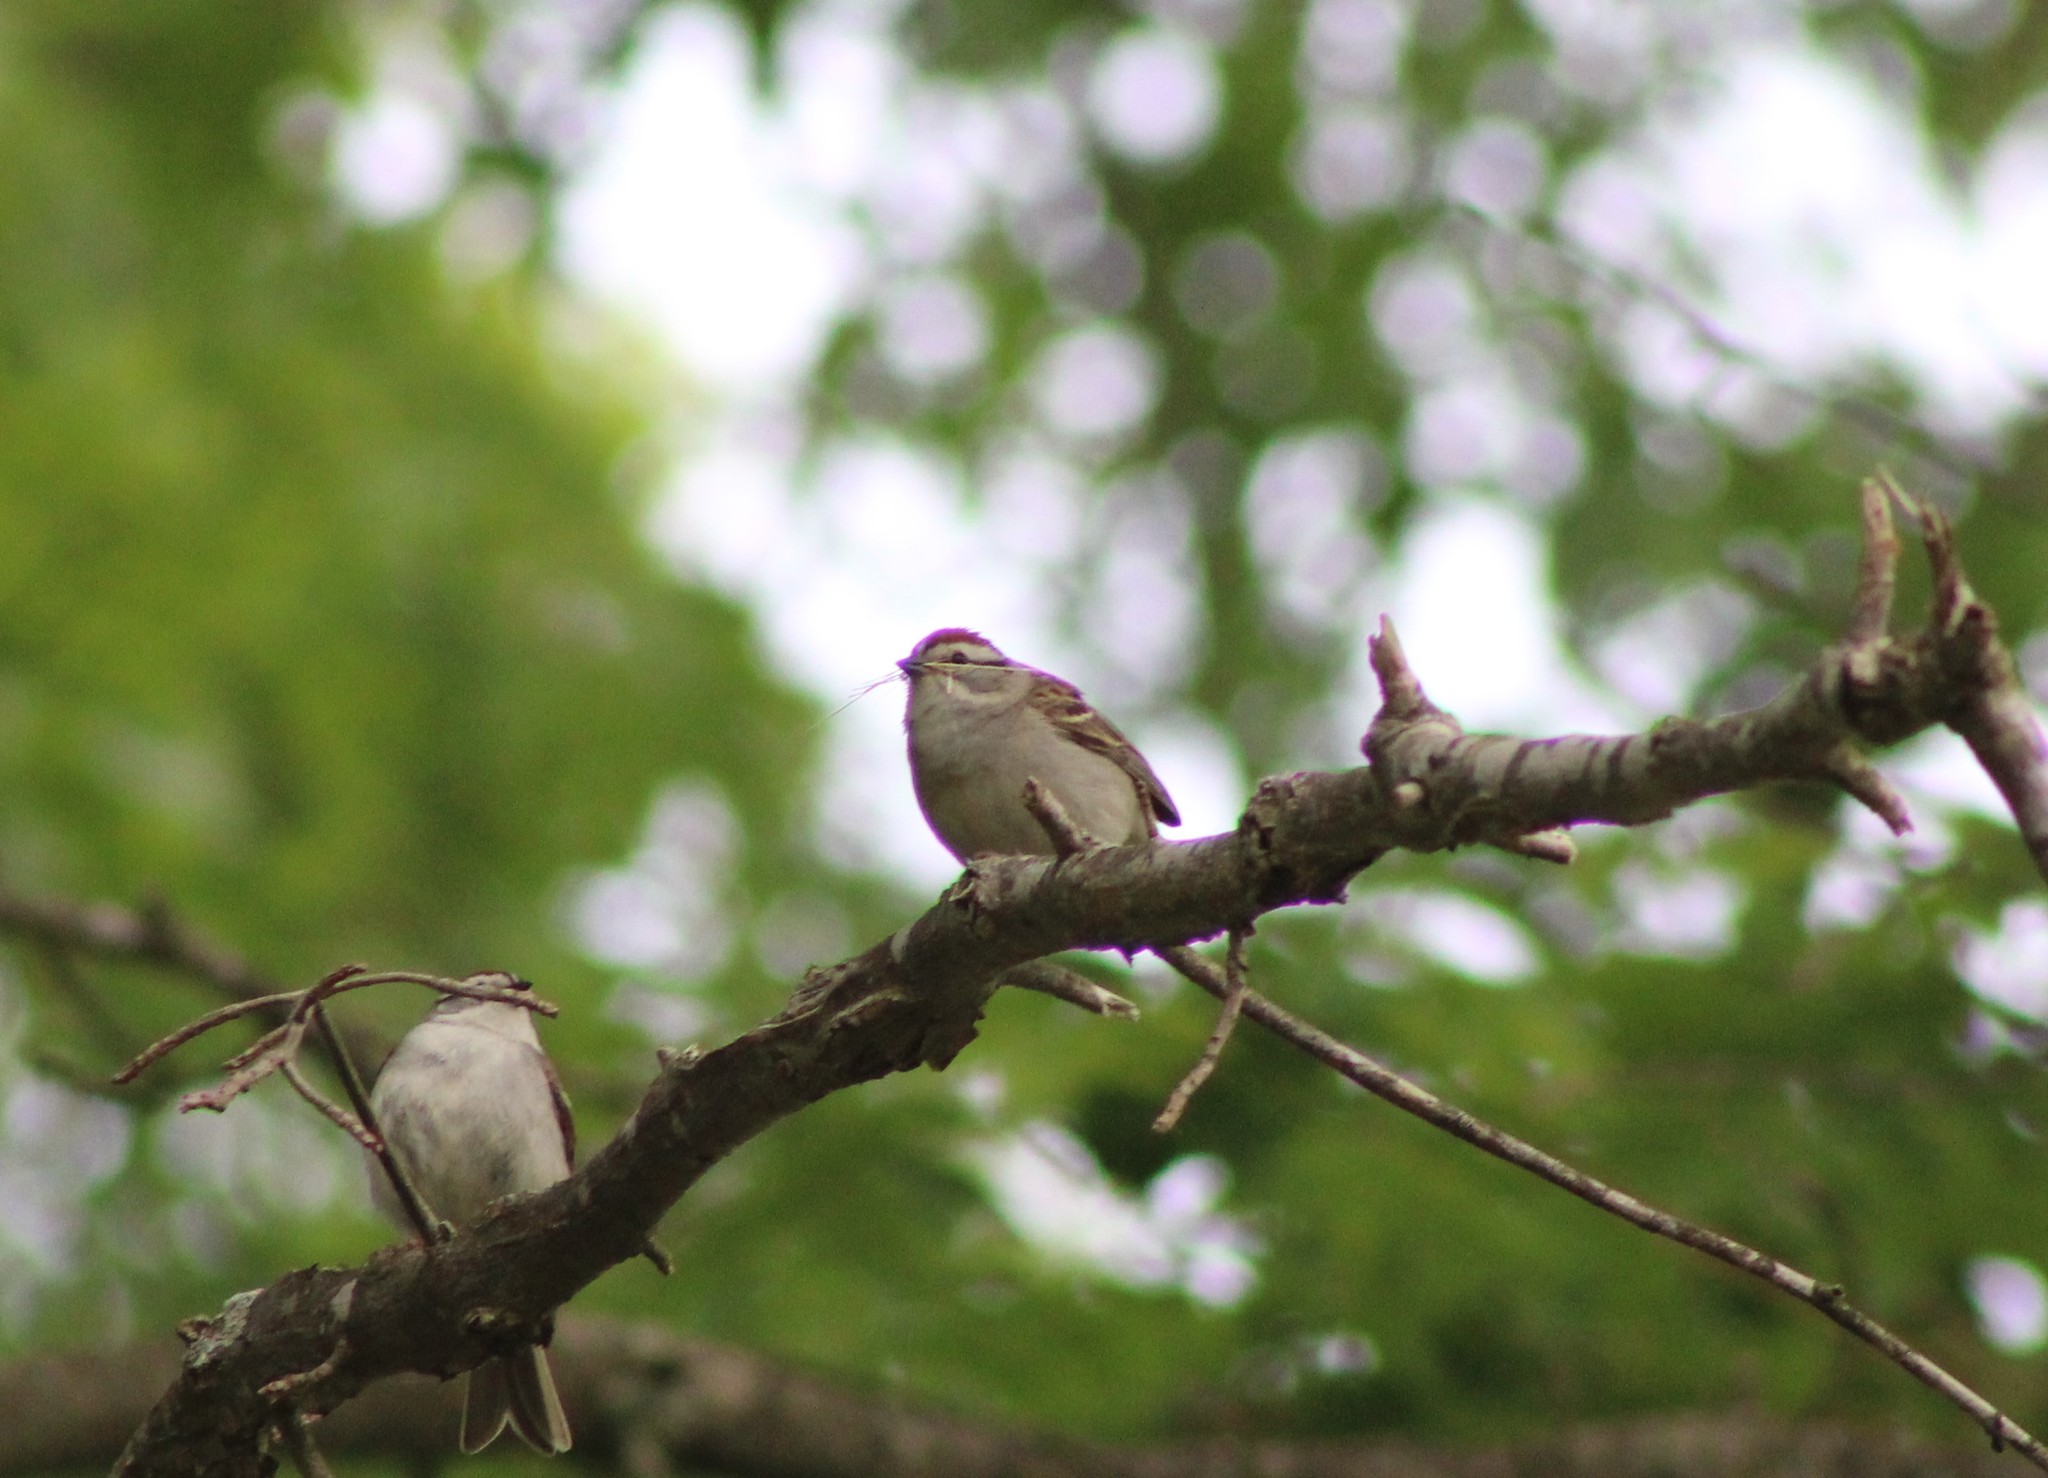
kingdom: Animalia
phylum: Chordata
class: Aves
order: Passeriformes
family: Passerellidae
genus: Spizella
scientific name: Spizella passerina
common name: Chipping sparrow
